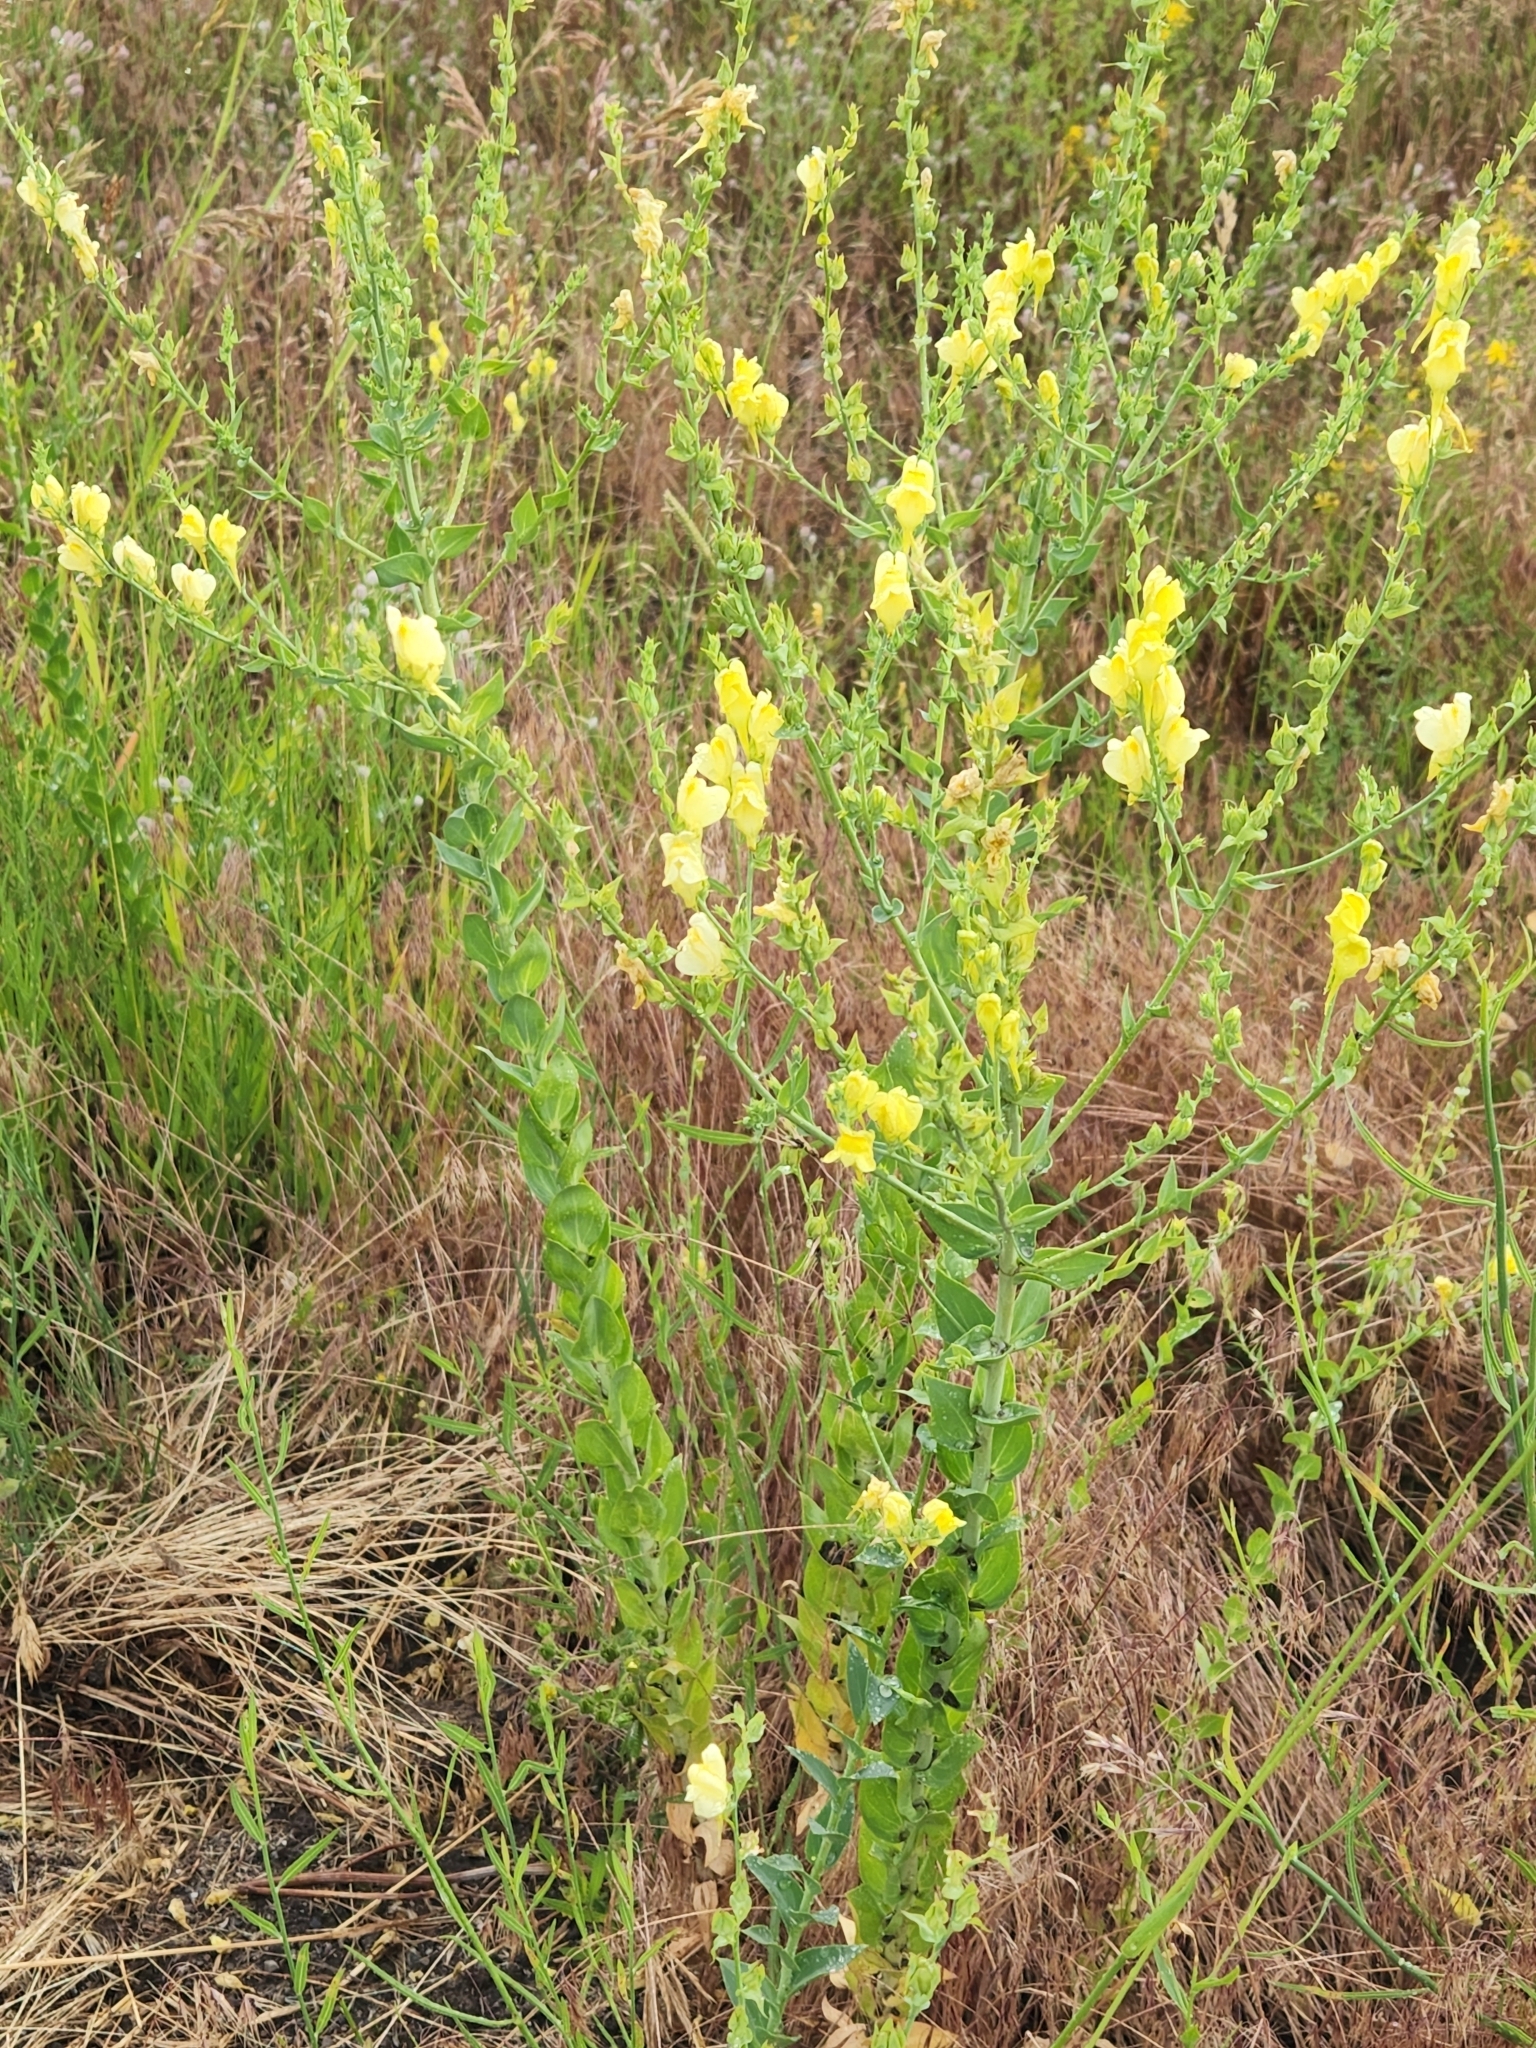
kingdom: Plantae
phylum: Tracheophyta
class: Magnoliopsida
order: Lamiales
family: Plantaginaceae
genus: Linaria
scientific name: Linaria dalmatica
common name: Dalmatian toadflax
